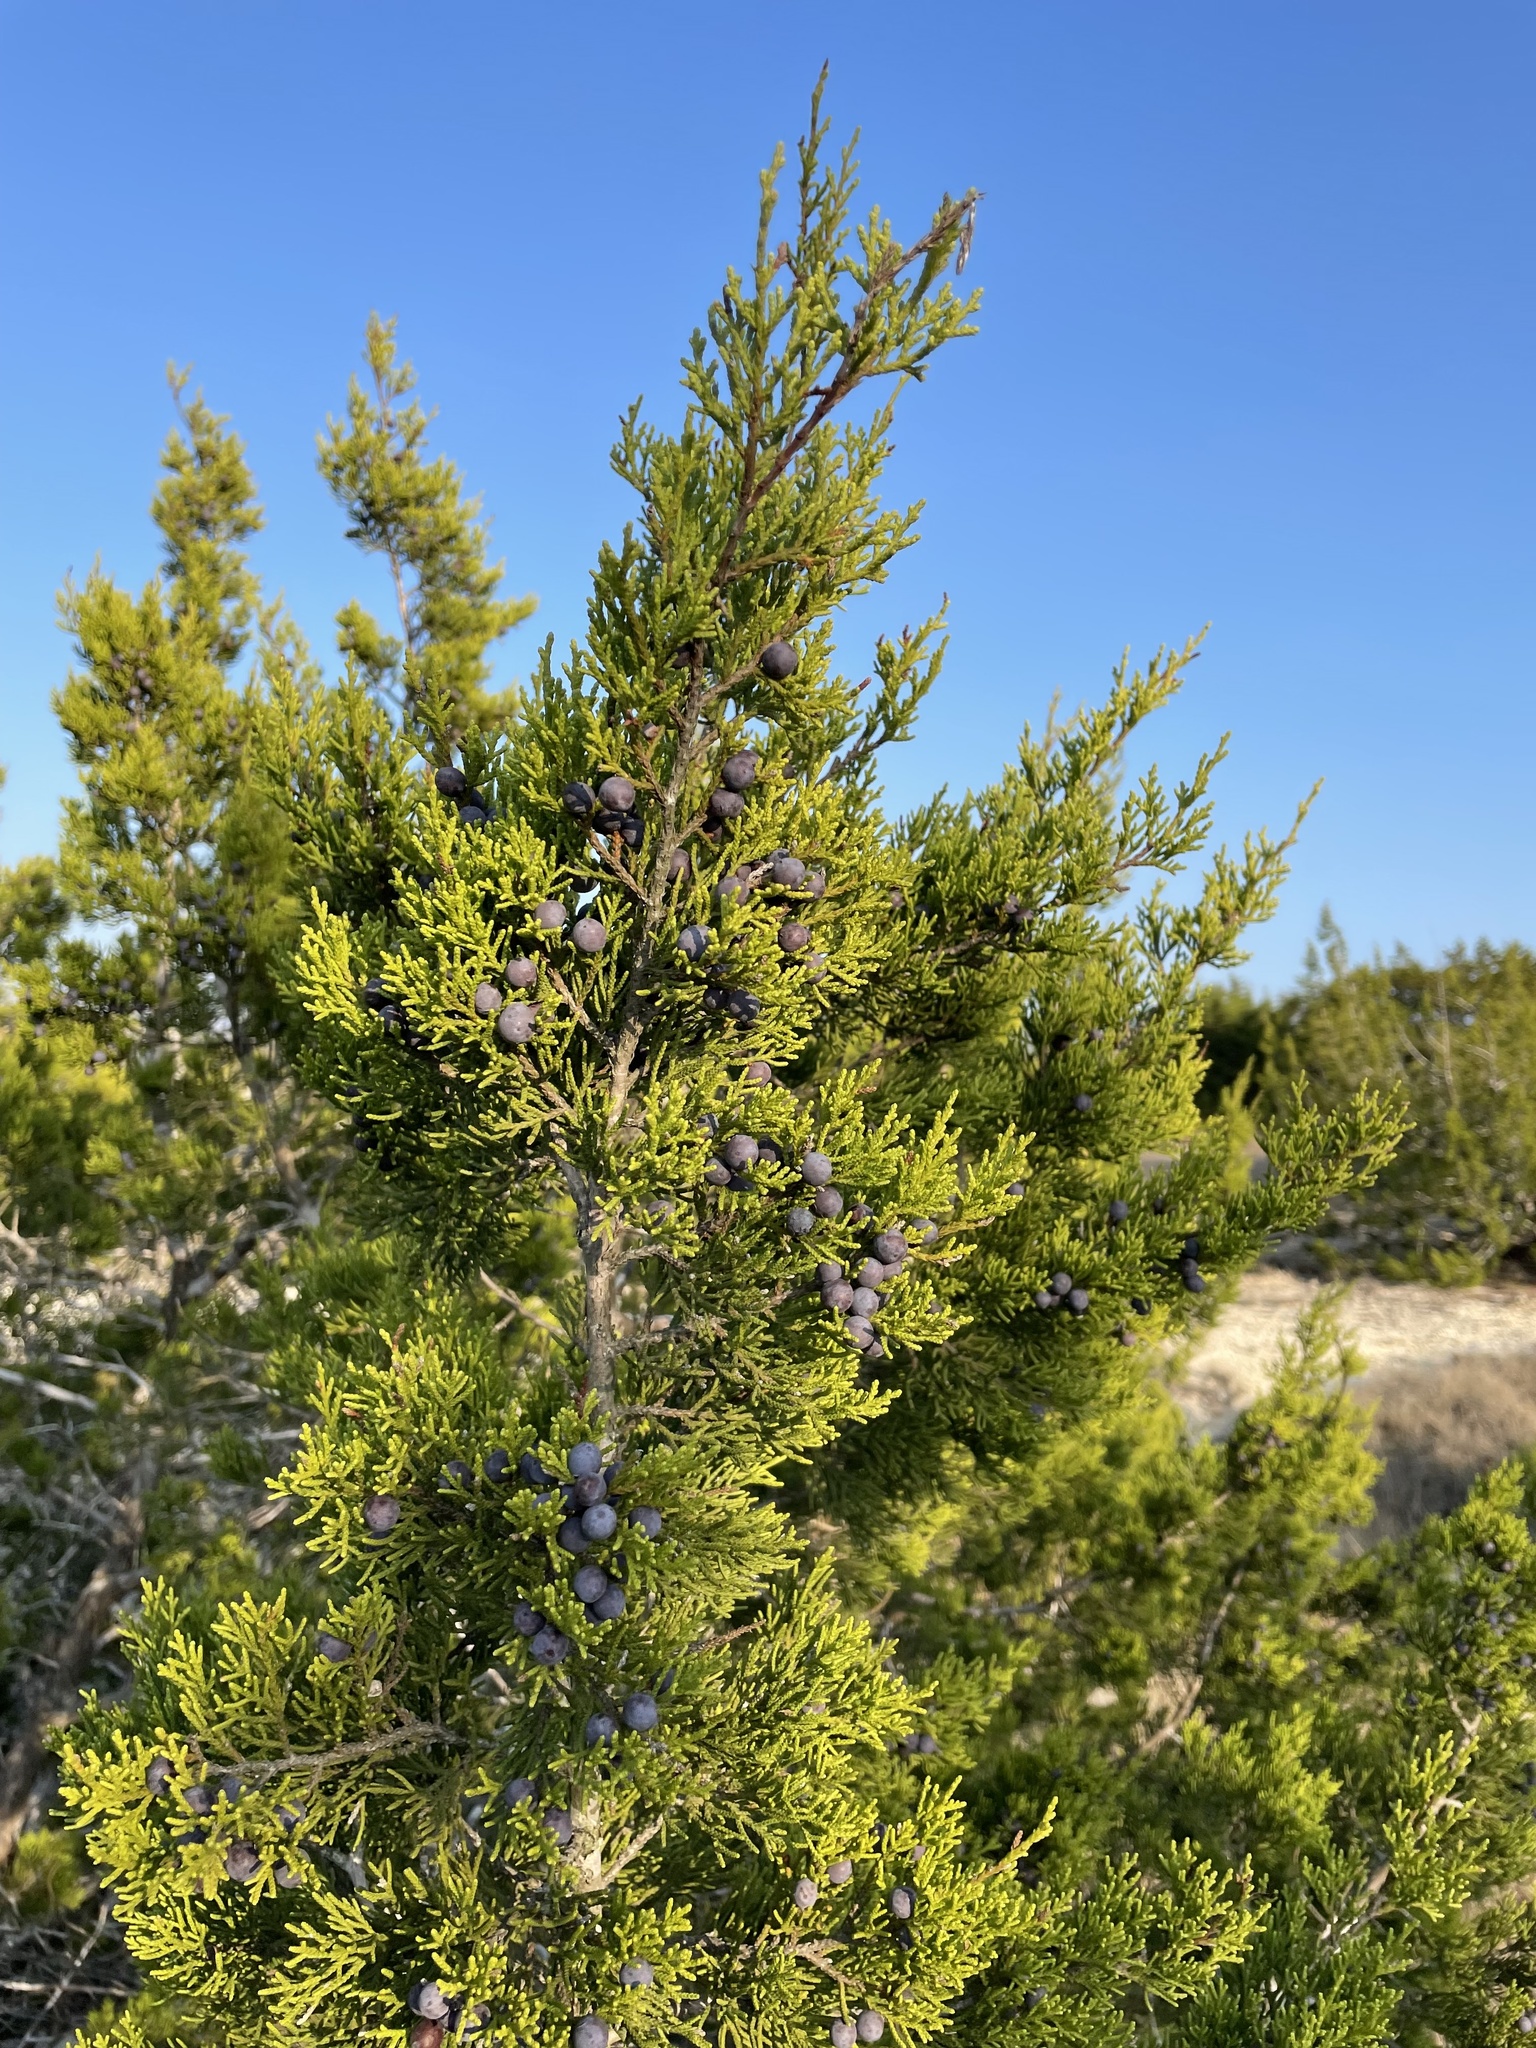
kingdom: Plantae
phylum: Tracheophyta
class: Pinopsida
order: Pinales
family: Cupressaceae
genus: Juniperus
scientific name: Juniperus ashei
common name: Mexican juniper
